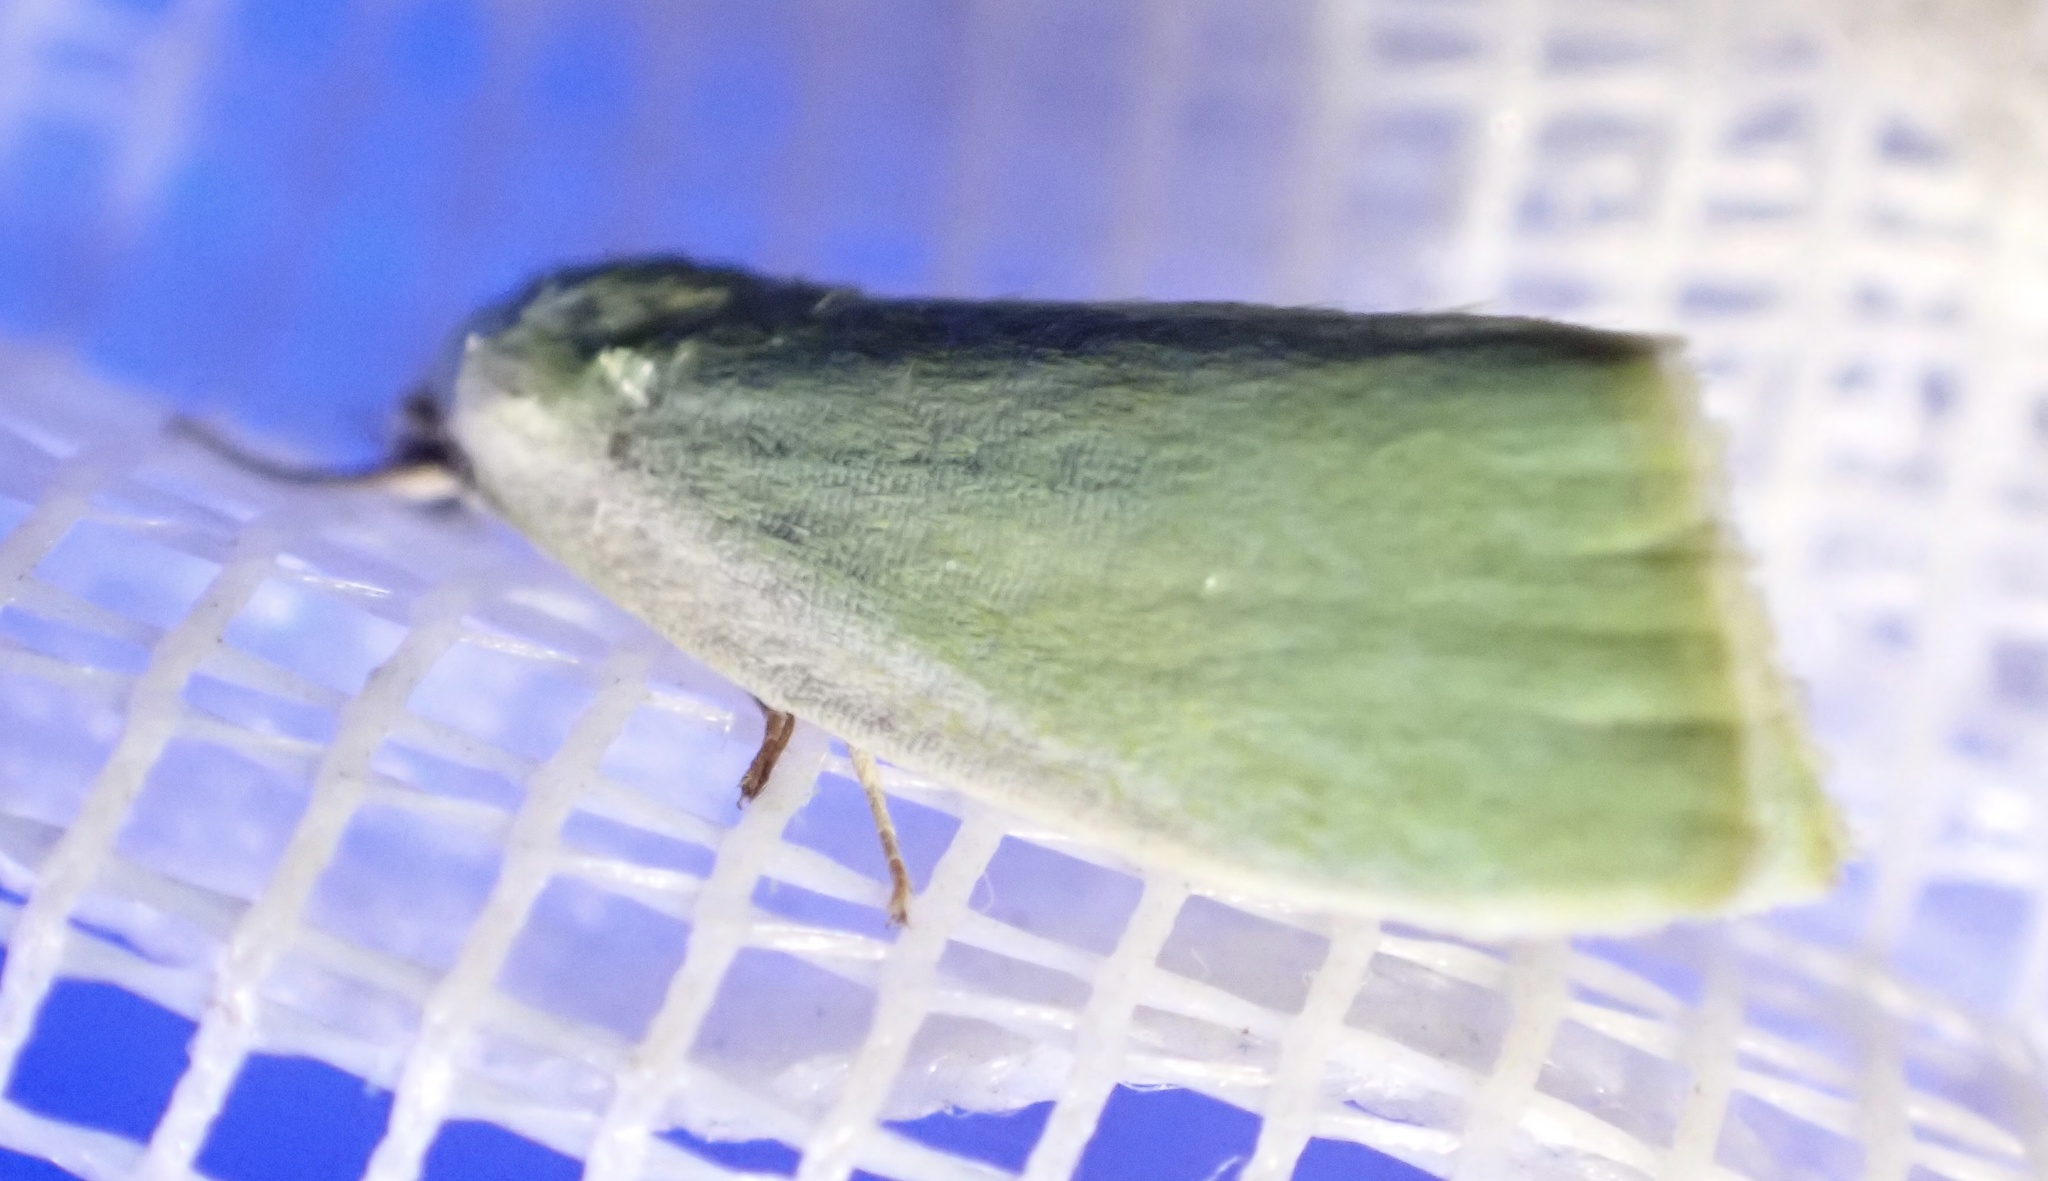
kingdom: Animalia
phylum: Arthropoda
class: Insecta
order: Lepidoptera
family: Nolidae
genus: Earias
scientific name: Earias clorana
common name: Cream-bordered green pea
